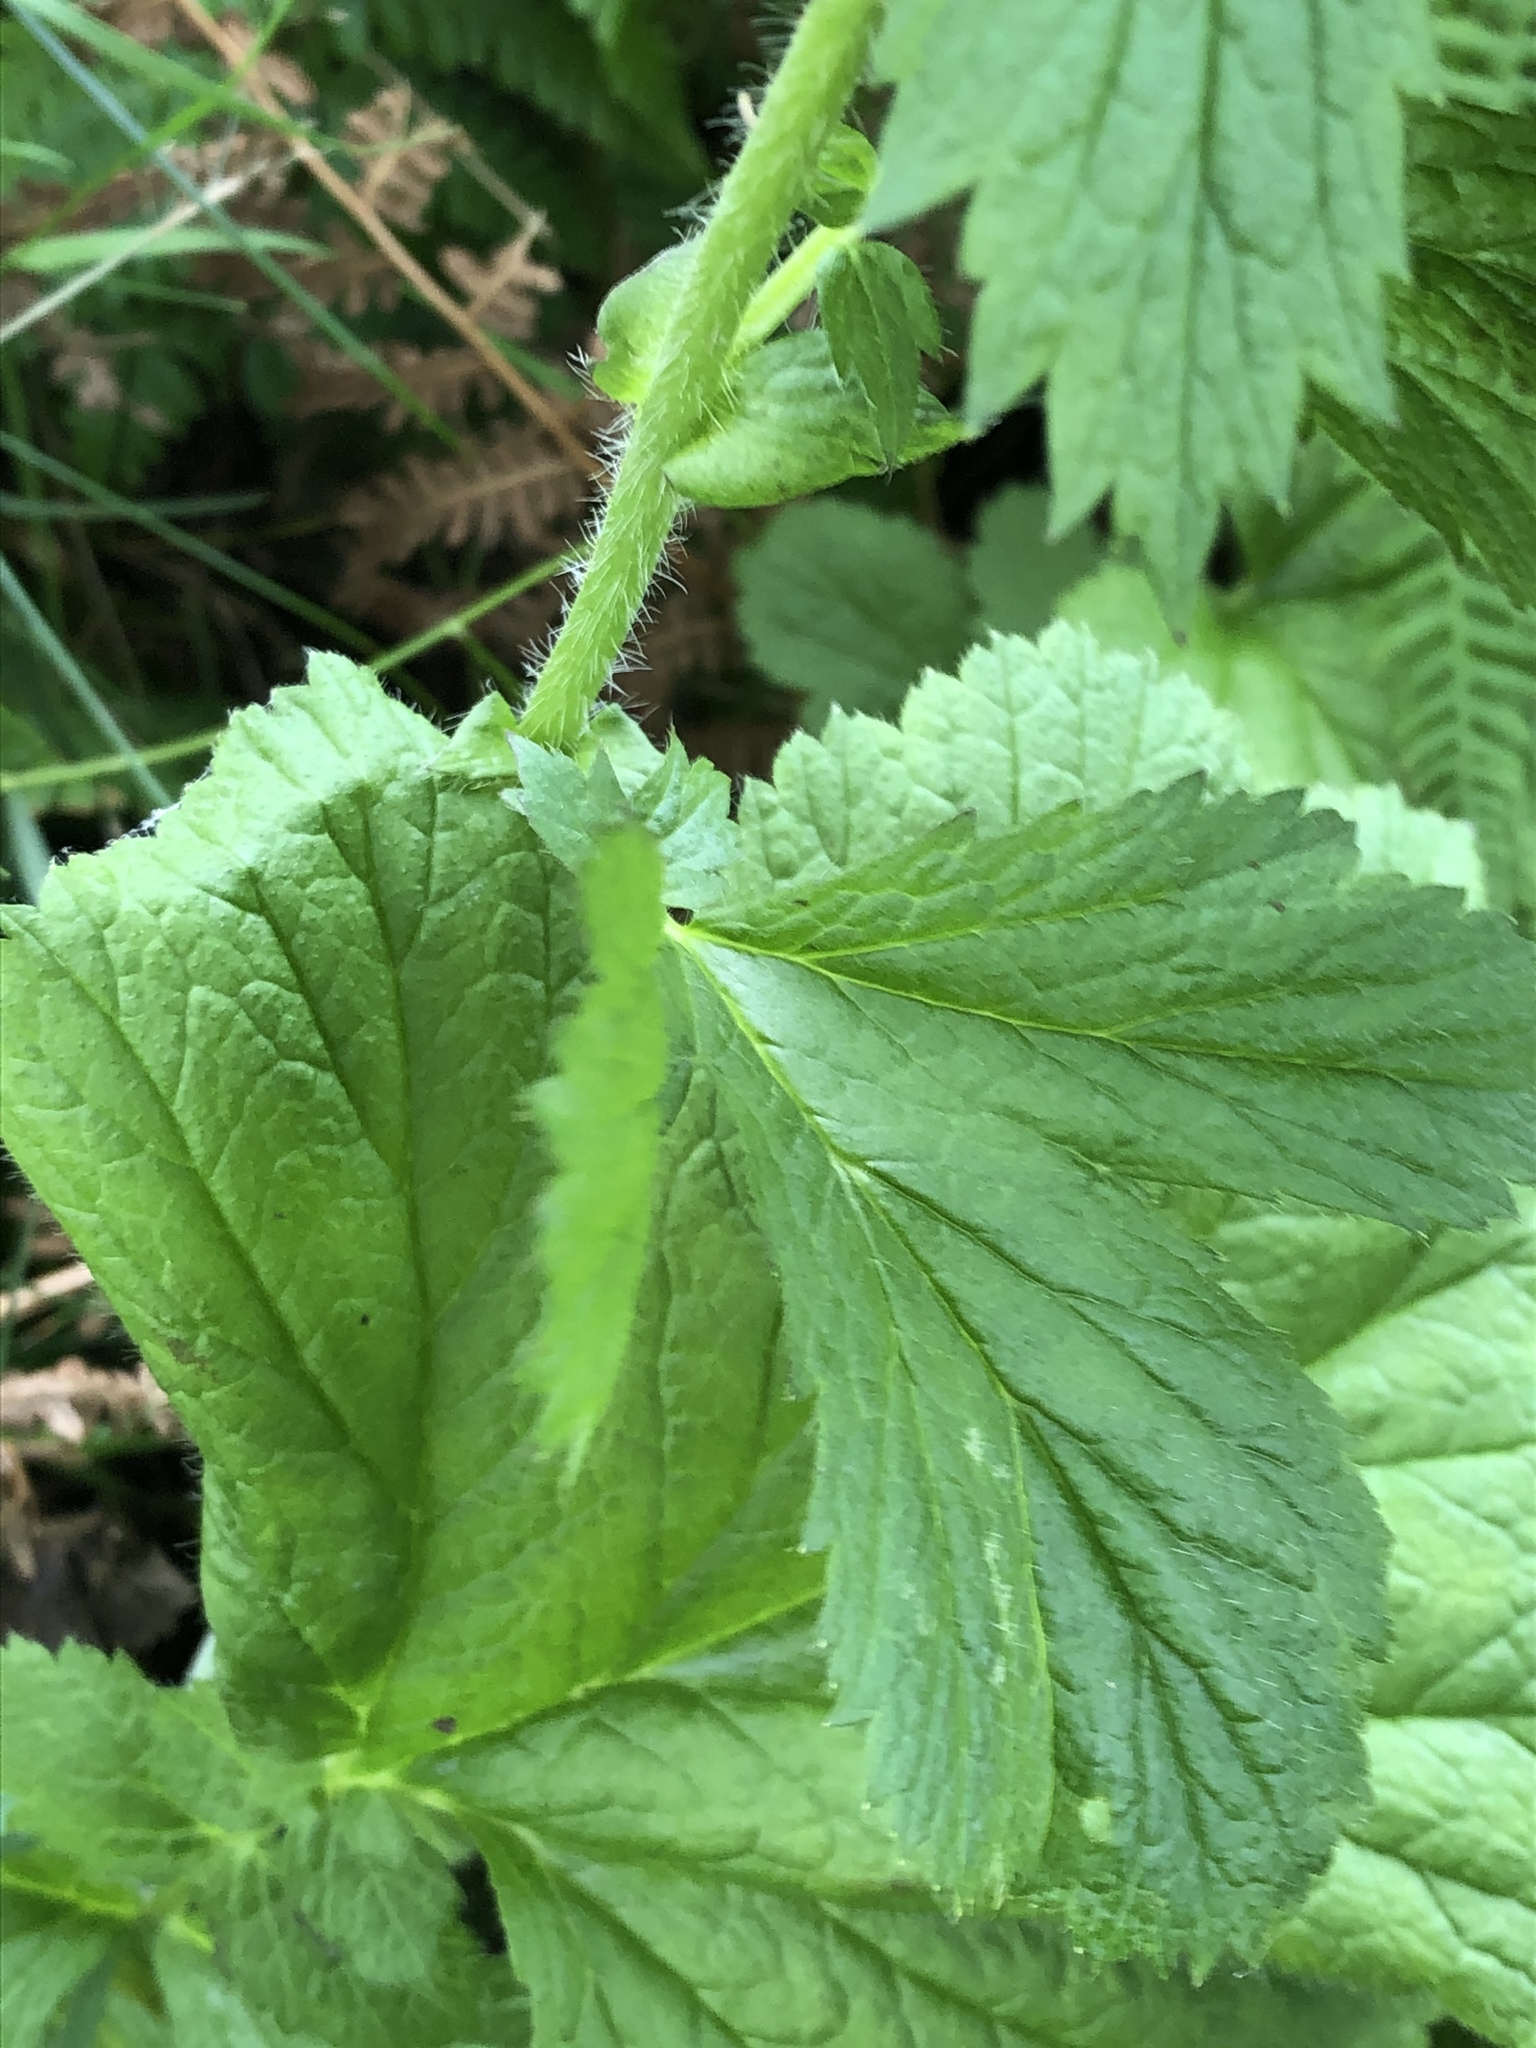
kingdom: Plantae
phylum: Tracheophyta
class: Magnoliopsida
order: Rosales
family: Rosaceae
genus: Geum
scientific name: Geum macrophyllum
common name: Large-leaved avens
